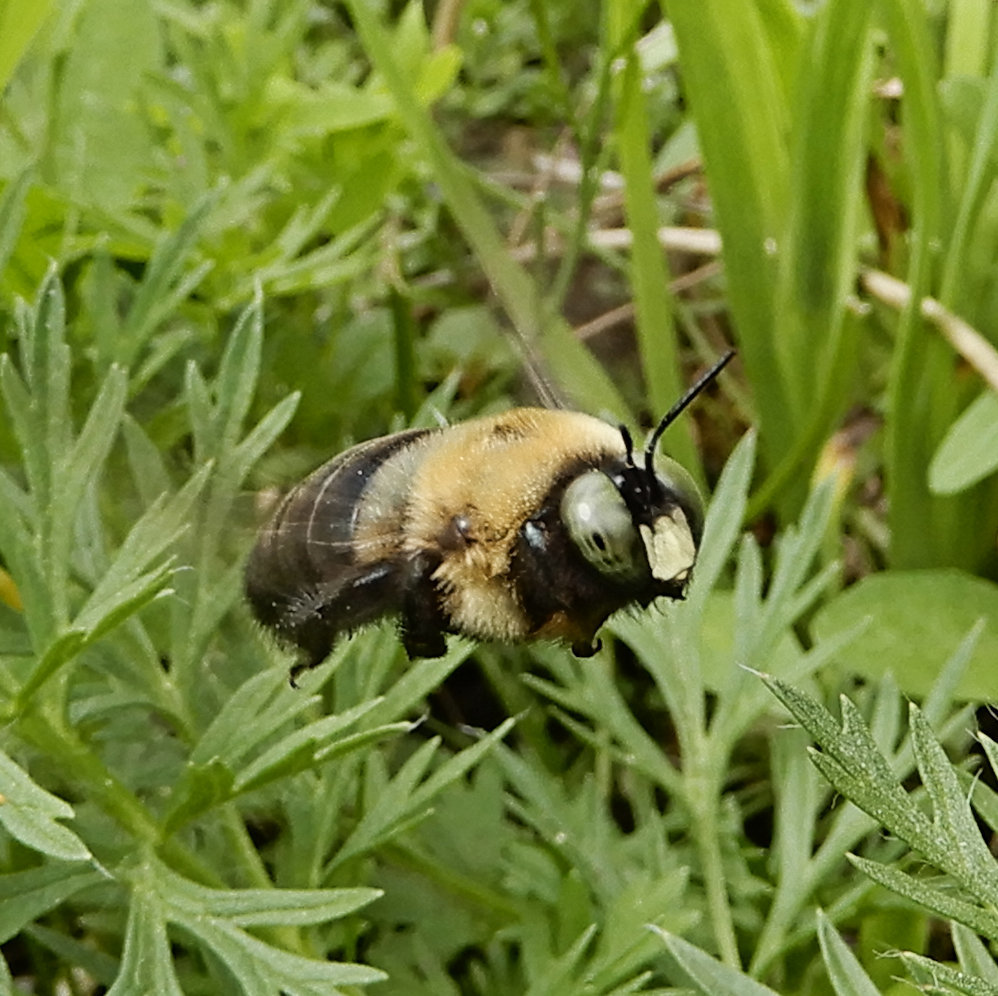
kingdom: Animalia
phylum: Arthropoda
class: Insecta
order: Hymenoptera
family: Apidae
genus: Xylocopa
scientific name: Xylocopa virginica
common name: Carpenter bee
